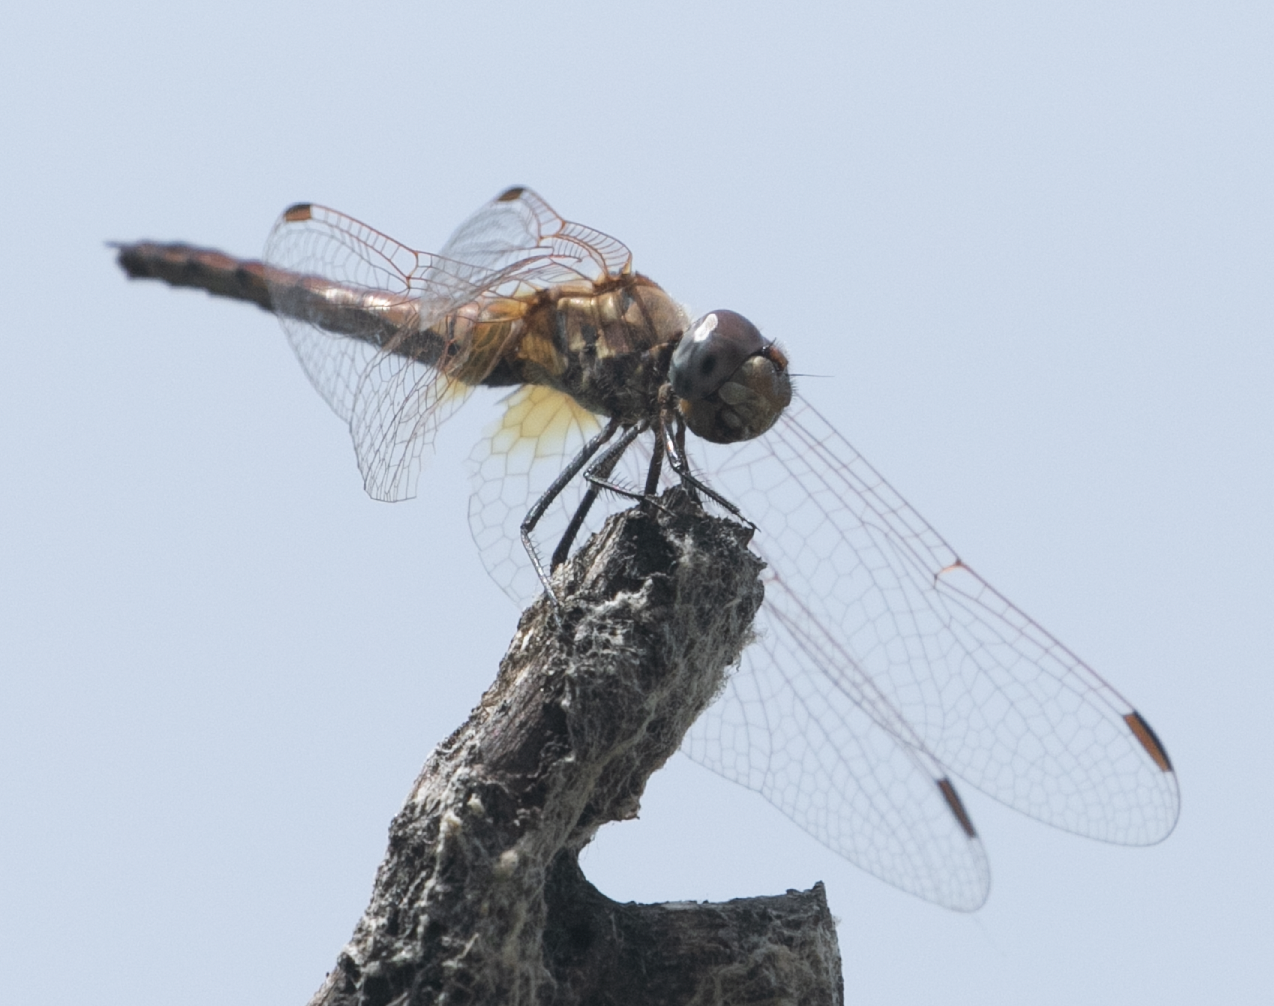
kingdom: Animalia
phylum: Arthropoda
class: Insecta
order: Odonata
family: Libellulidae
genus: Trithemis
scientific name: Trithemis annulata
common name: Violet dropwing
